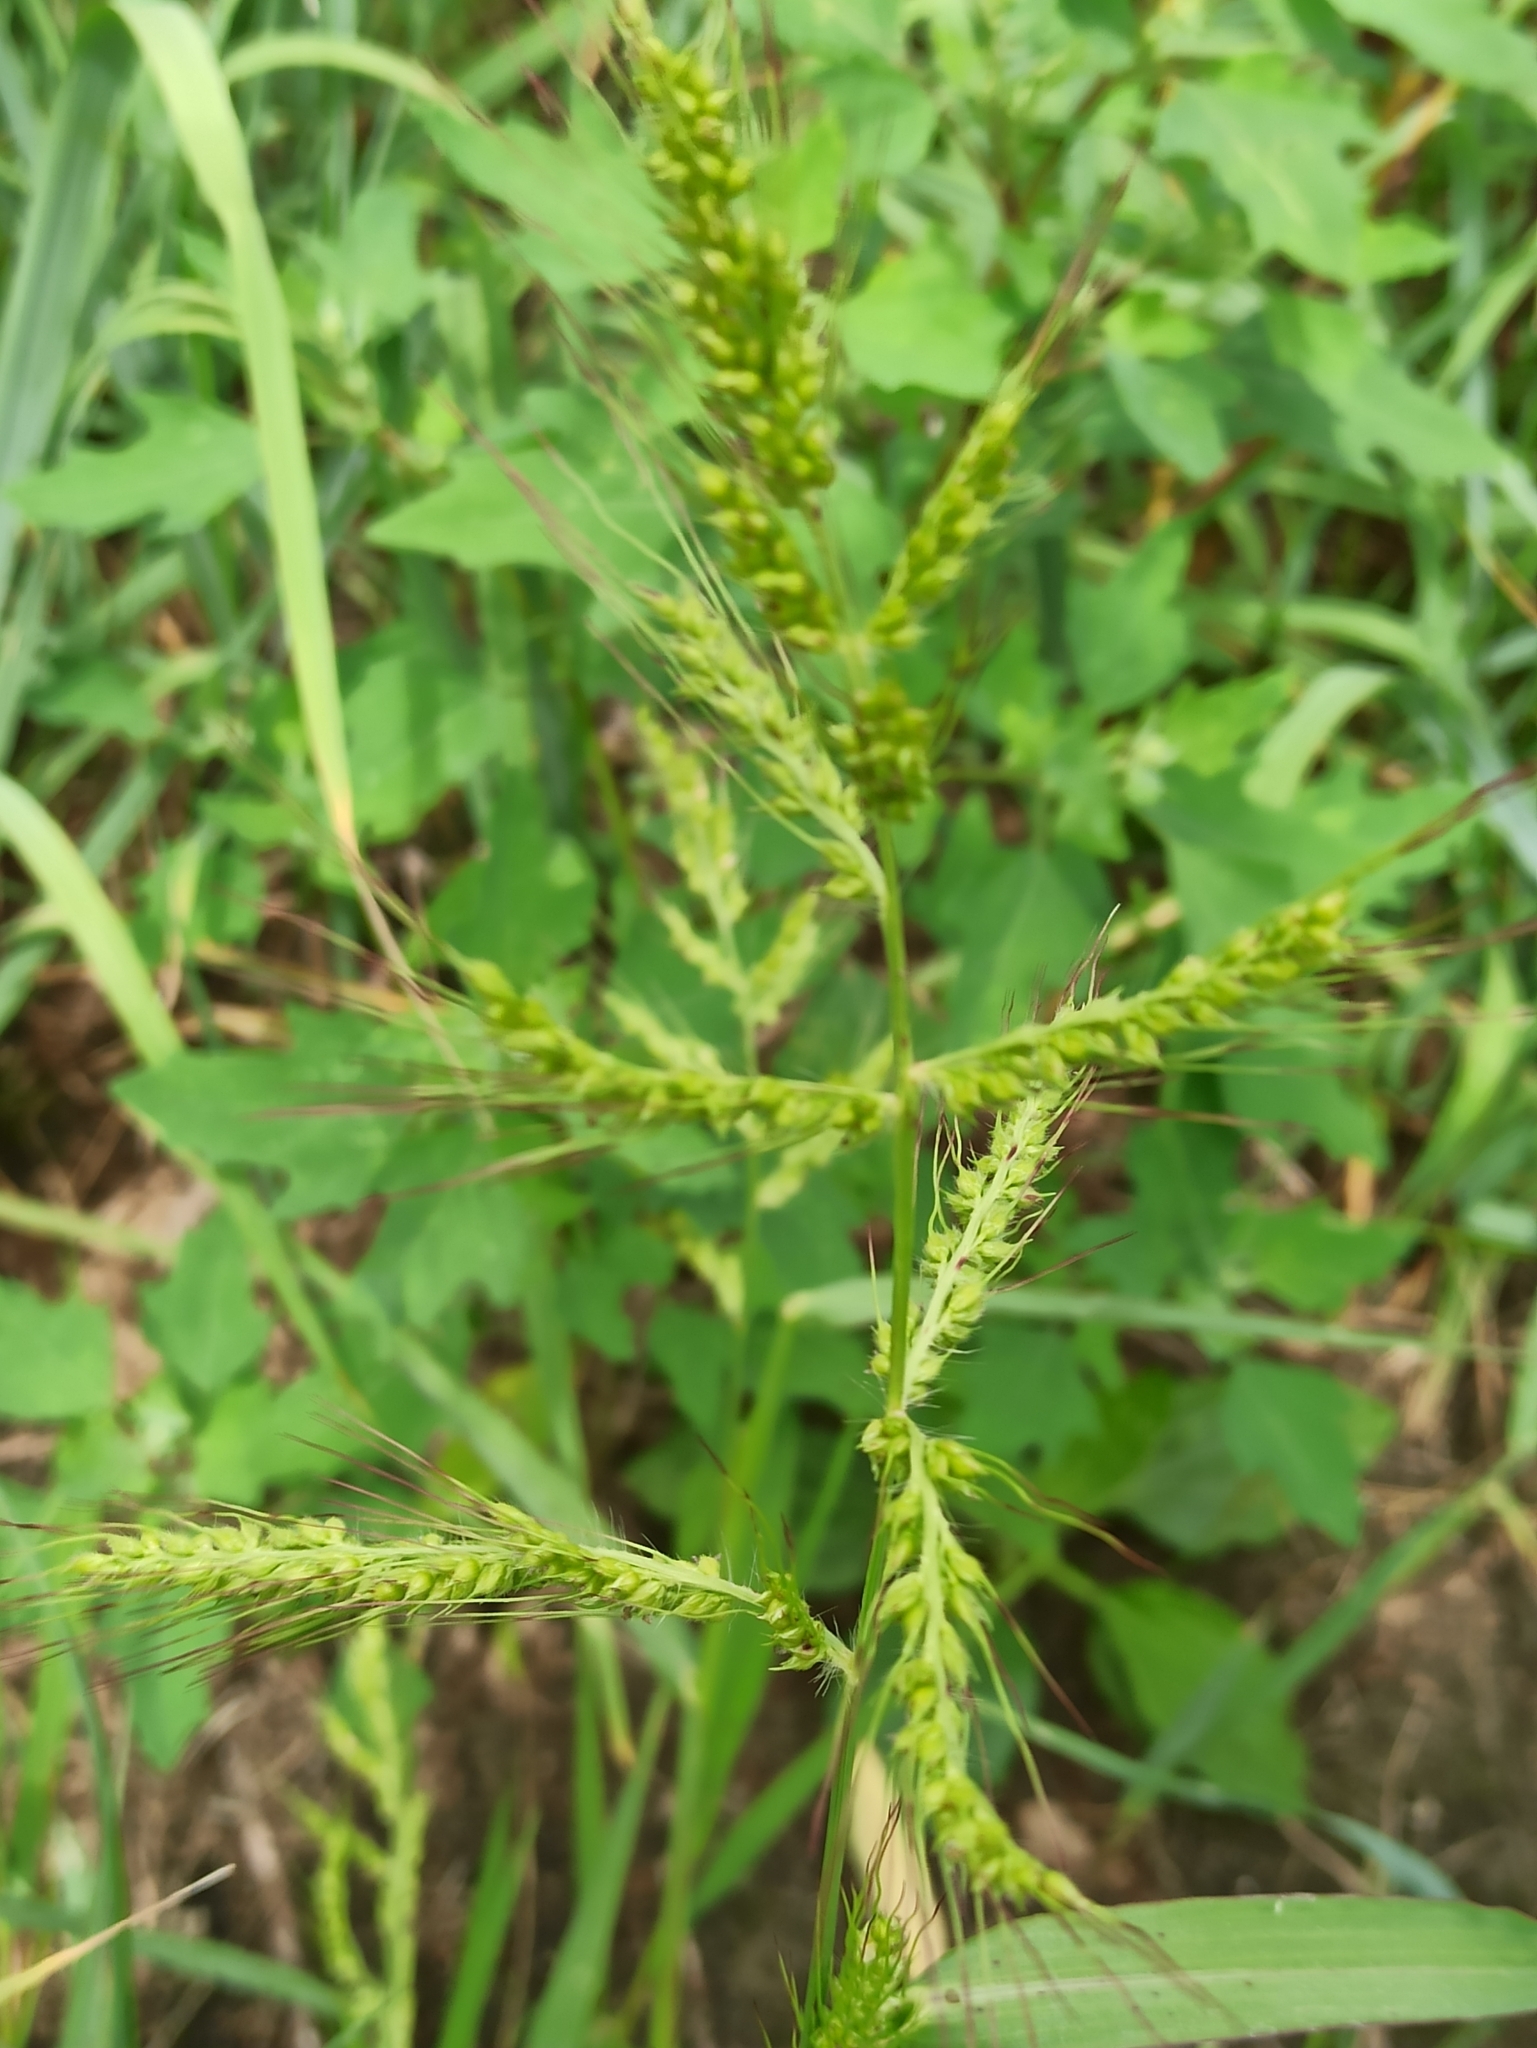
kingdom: Plantae
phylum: Tracheophyta
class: Liliopsida
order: Poales
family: Poaceae
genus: Echinochloa
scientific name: Echinochloa crus-galli
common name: Cockspur
